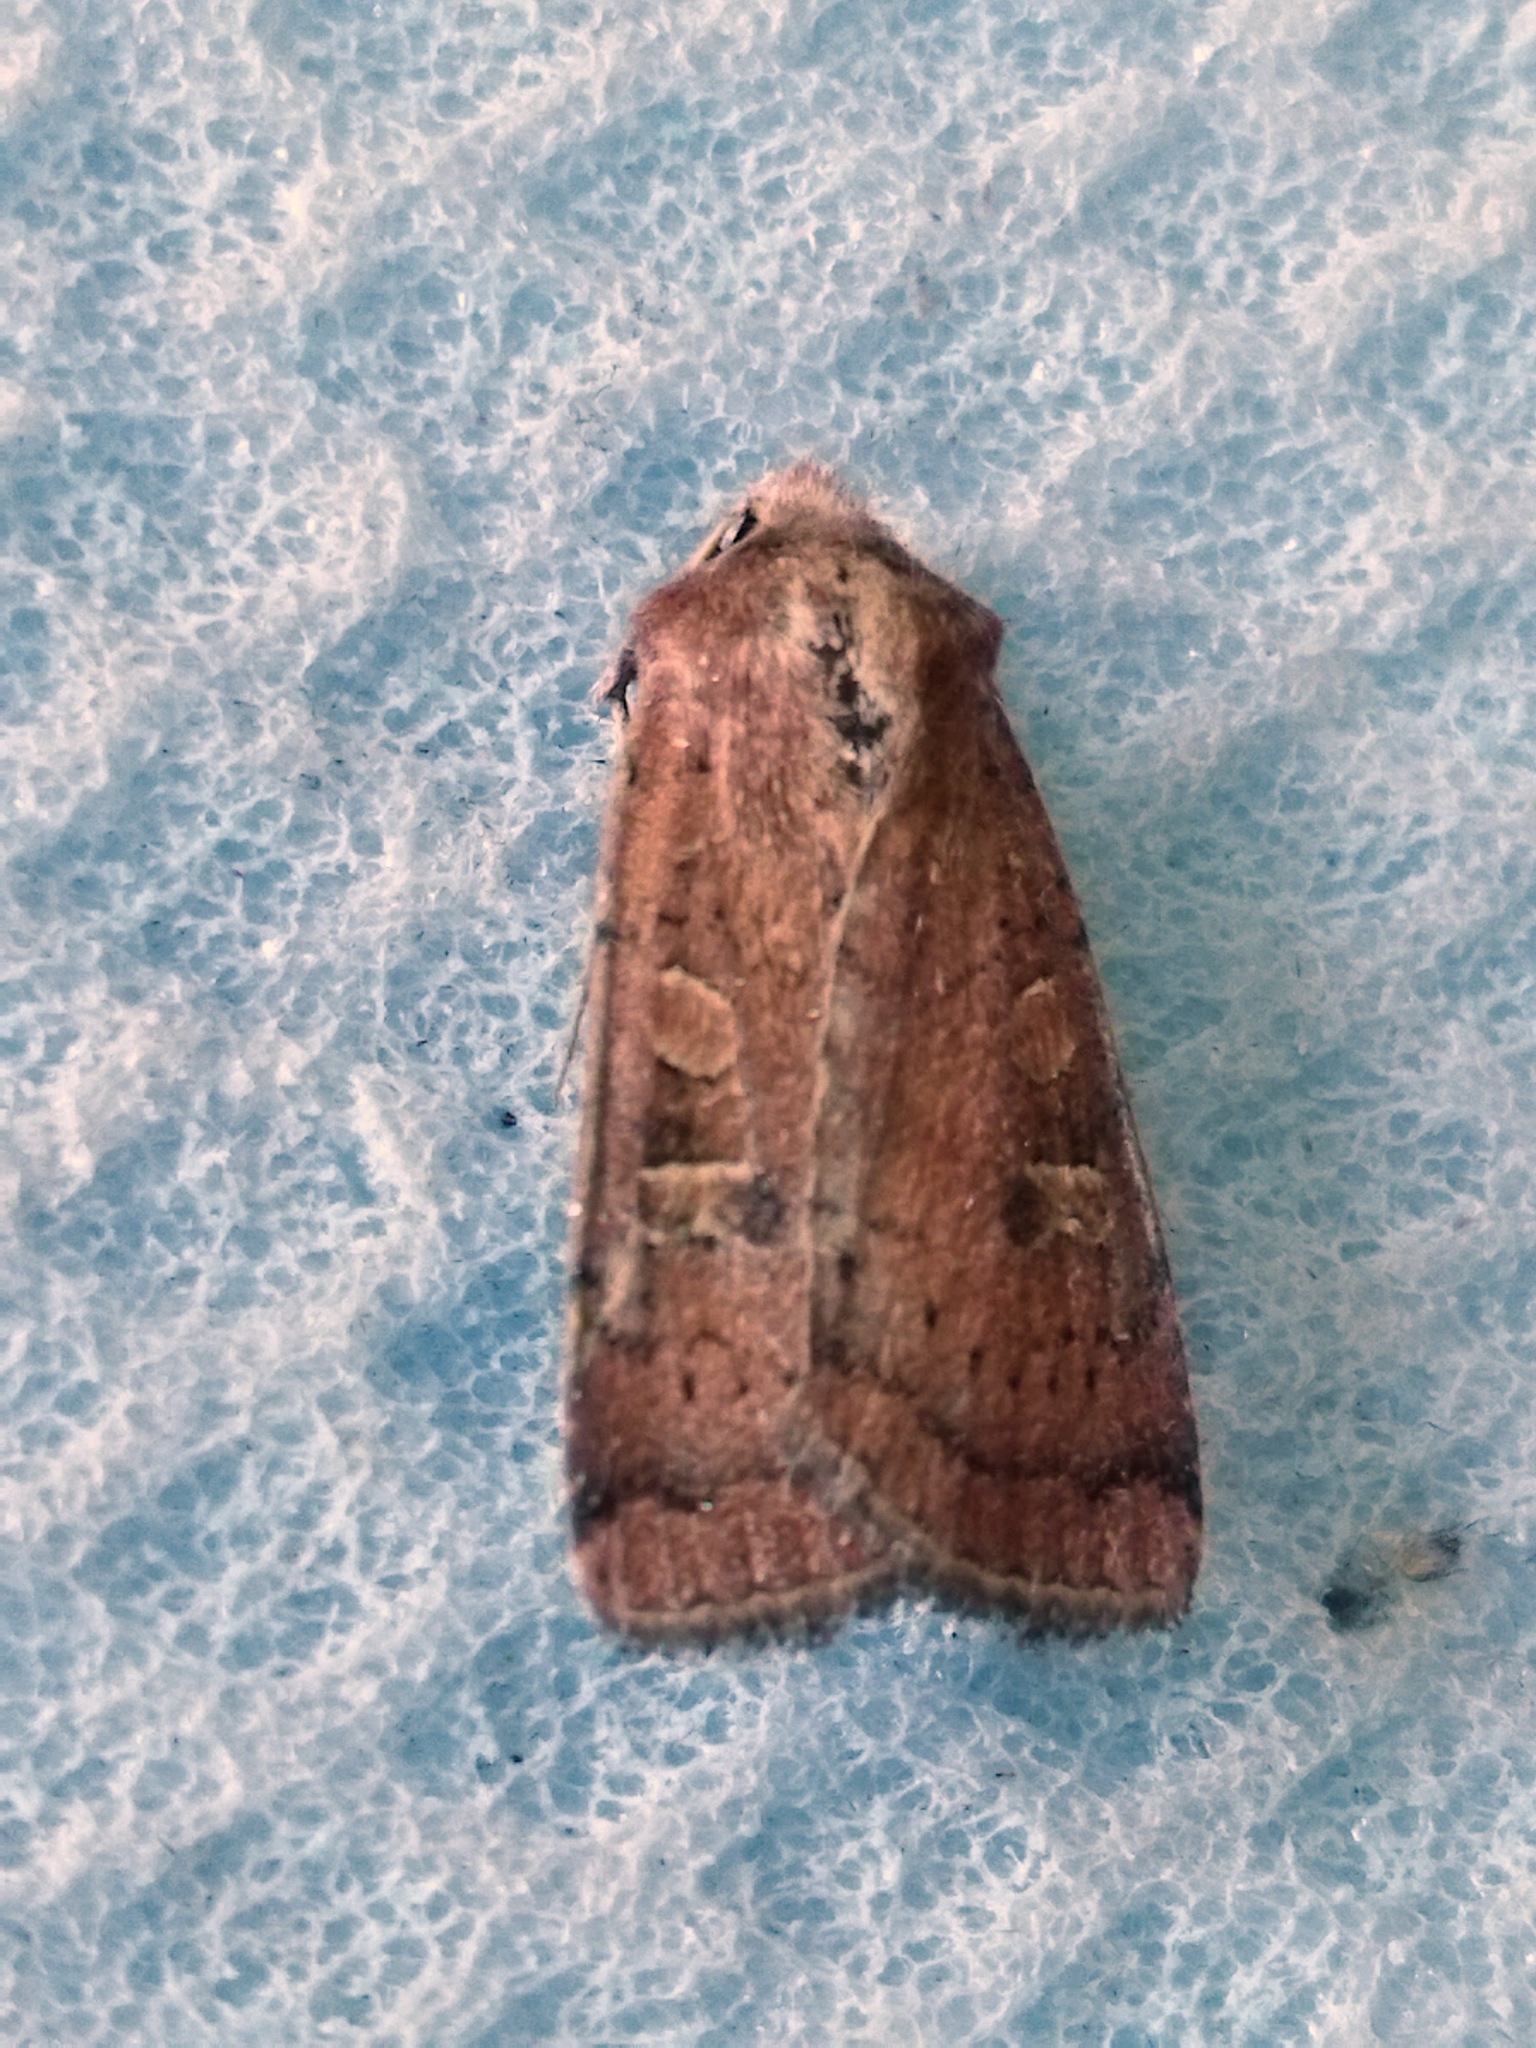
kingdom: Animalia
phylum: Arthropoda
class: Insecta
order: Lepidoptera
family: Noctuidae
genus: Xestia
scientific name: Xestia xanthographa
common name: Square-spot rustic
